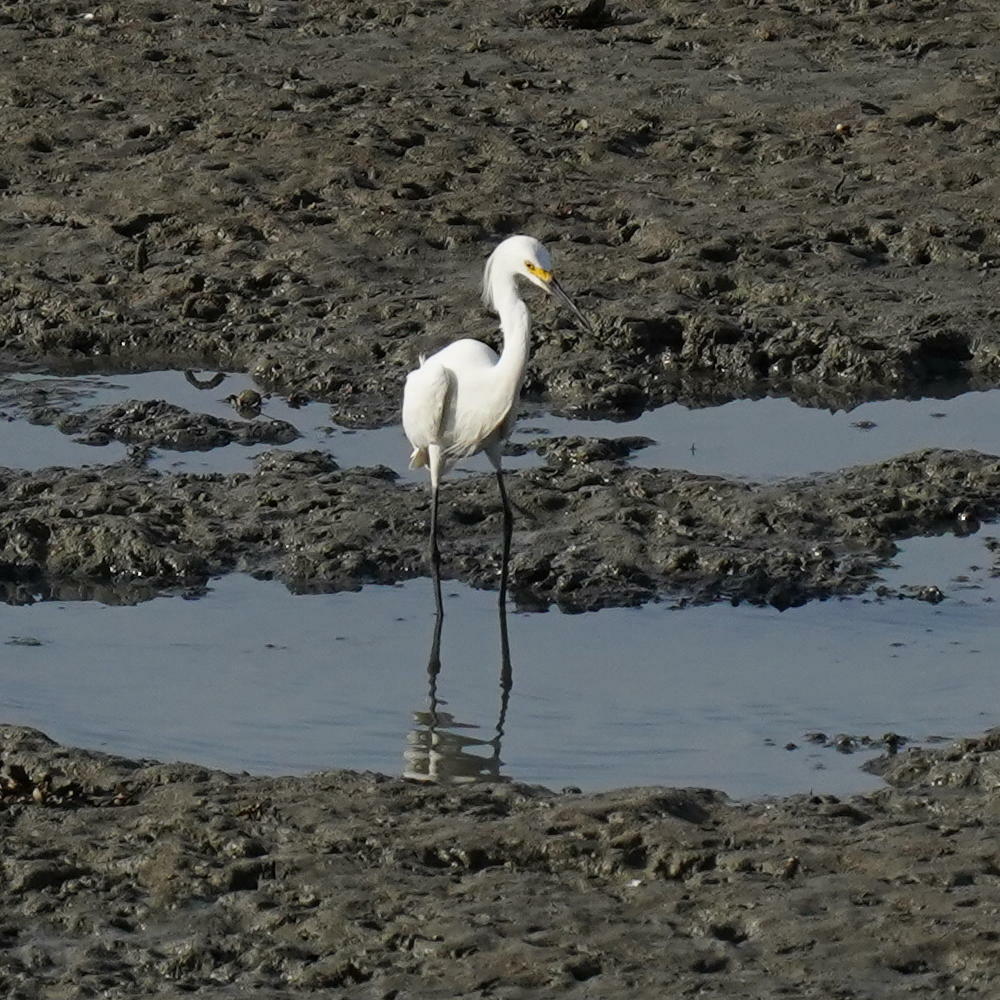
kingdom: Animalia
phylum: Chordata
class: Aves
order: Pelecaniformes
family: Ardeidae
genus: Egretta
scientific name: Egretta thula
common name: Snowy egret
